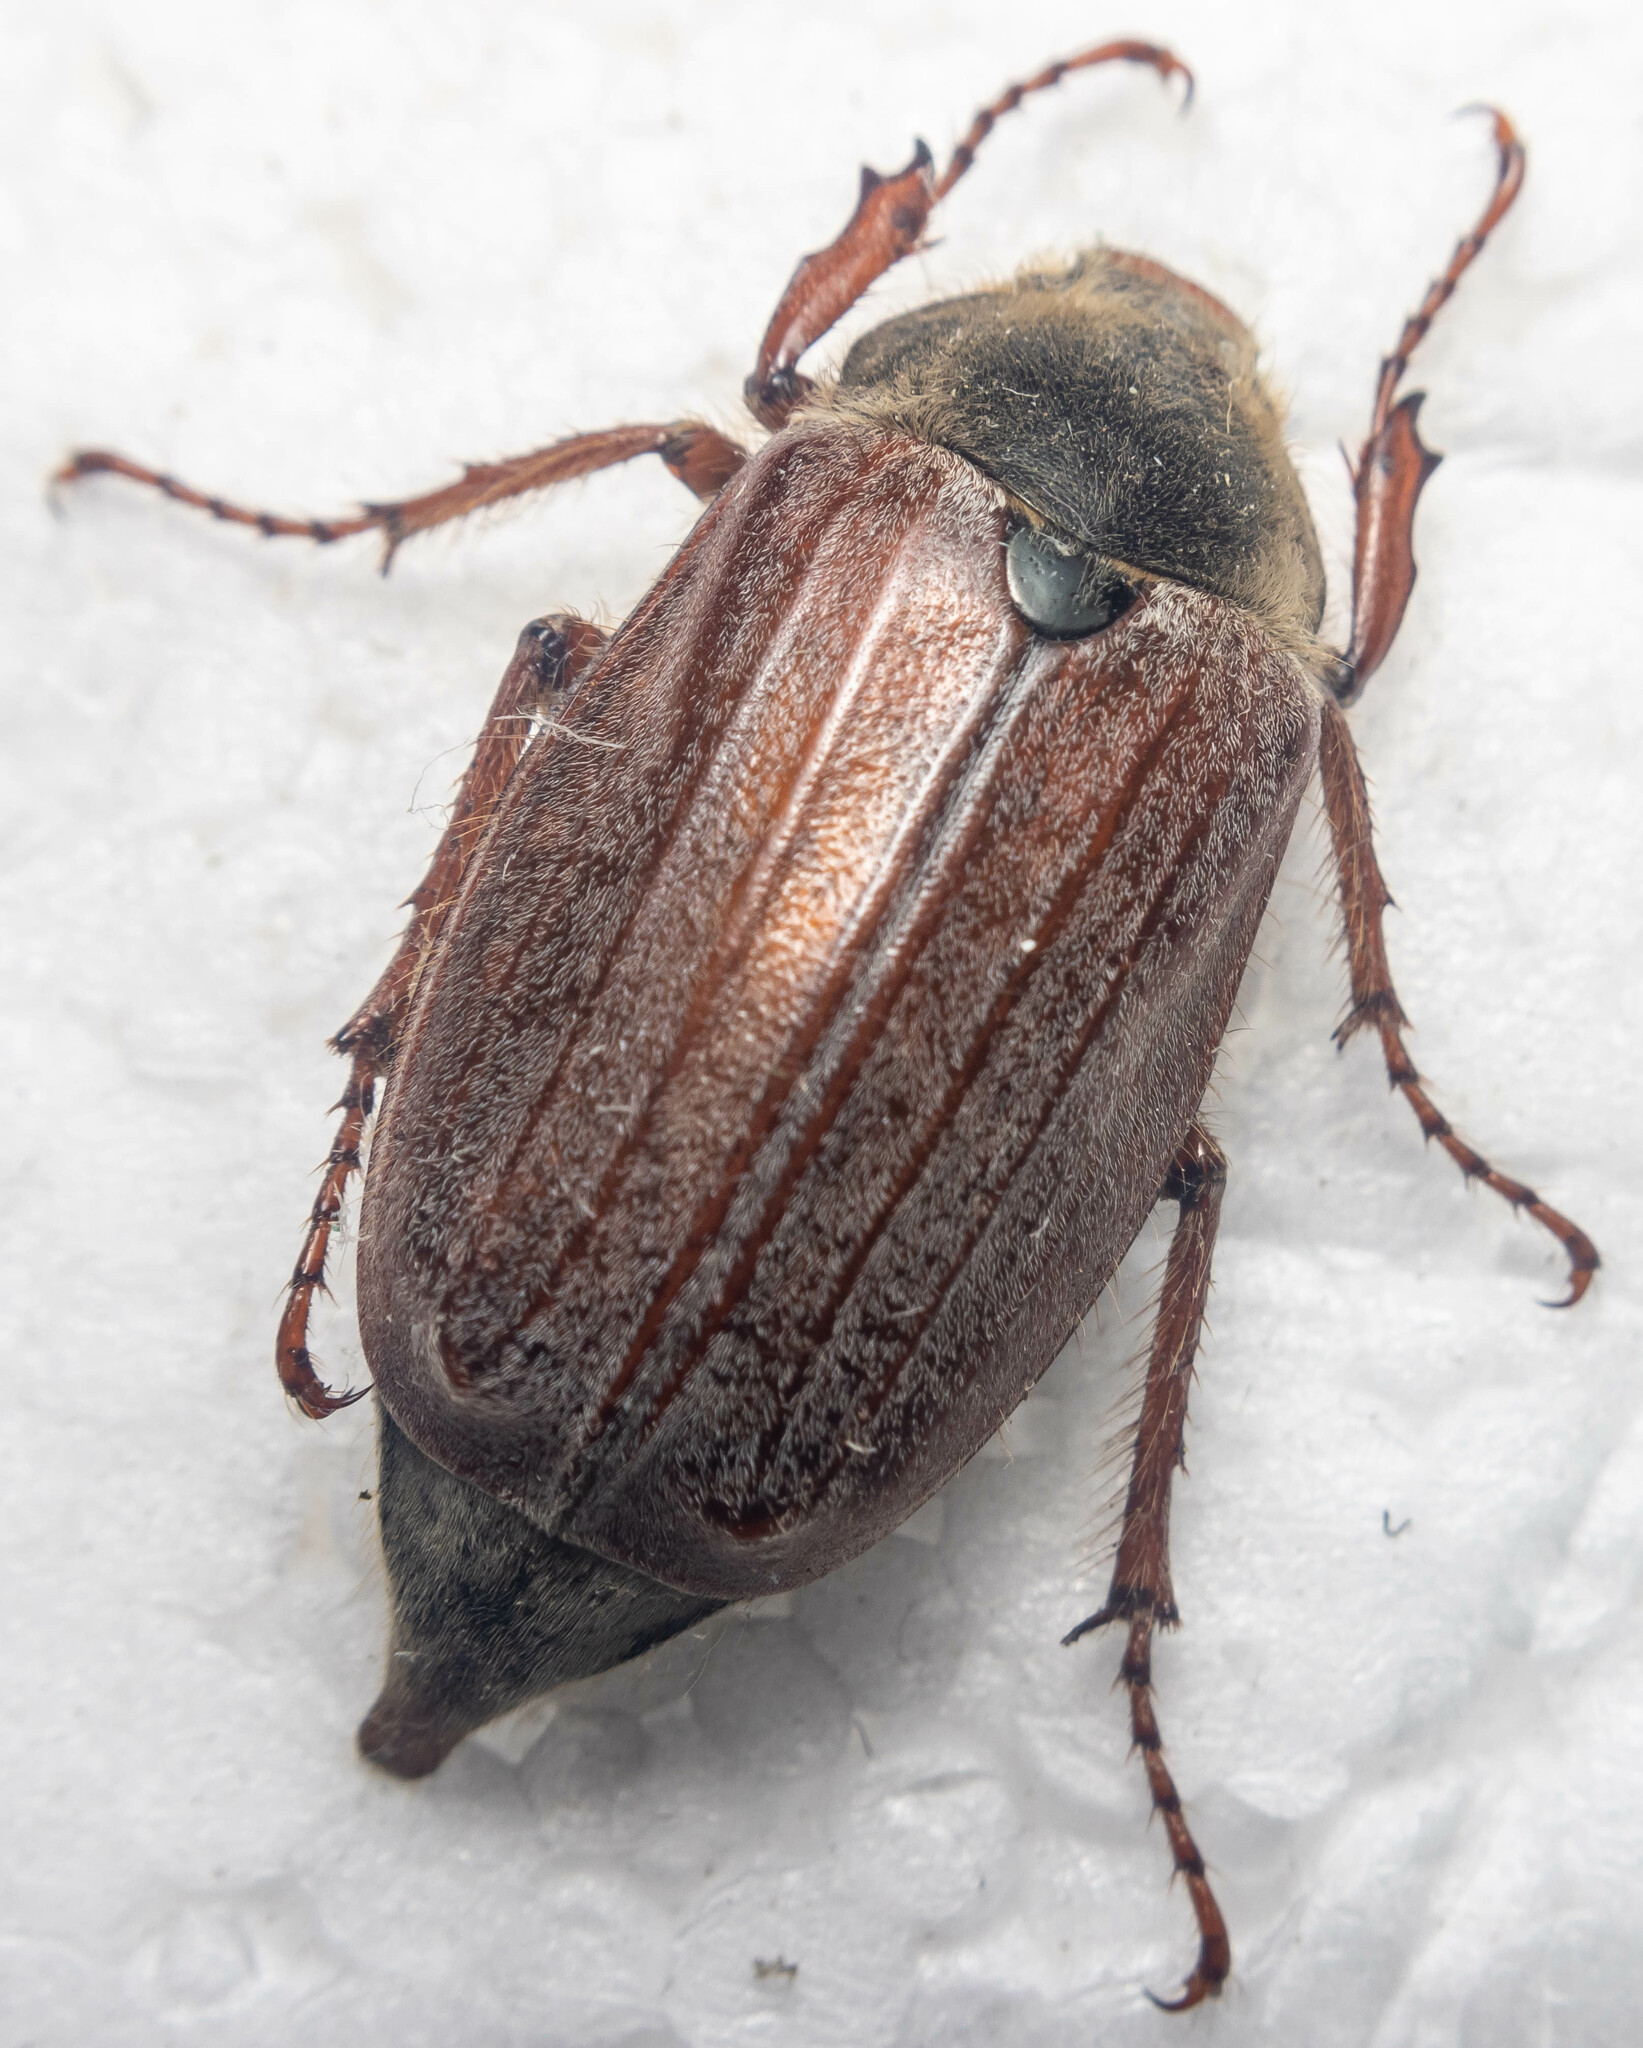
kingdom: Animalia
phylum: Arthropoda
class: Insecta
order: Coleoptera
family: Scarabaeidae
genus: Melolontha
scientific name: Melolontha melolontha
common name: Cockchafer maybeetle
